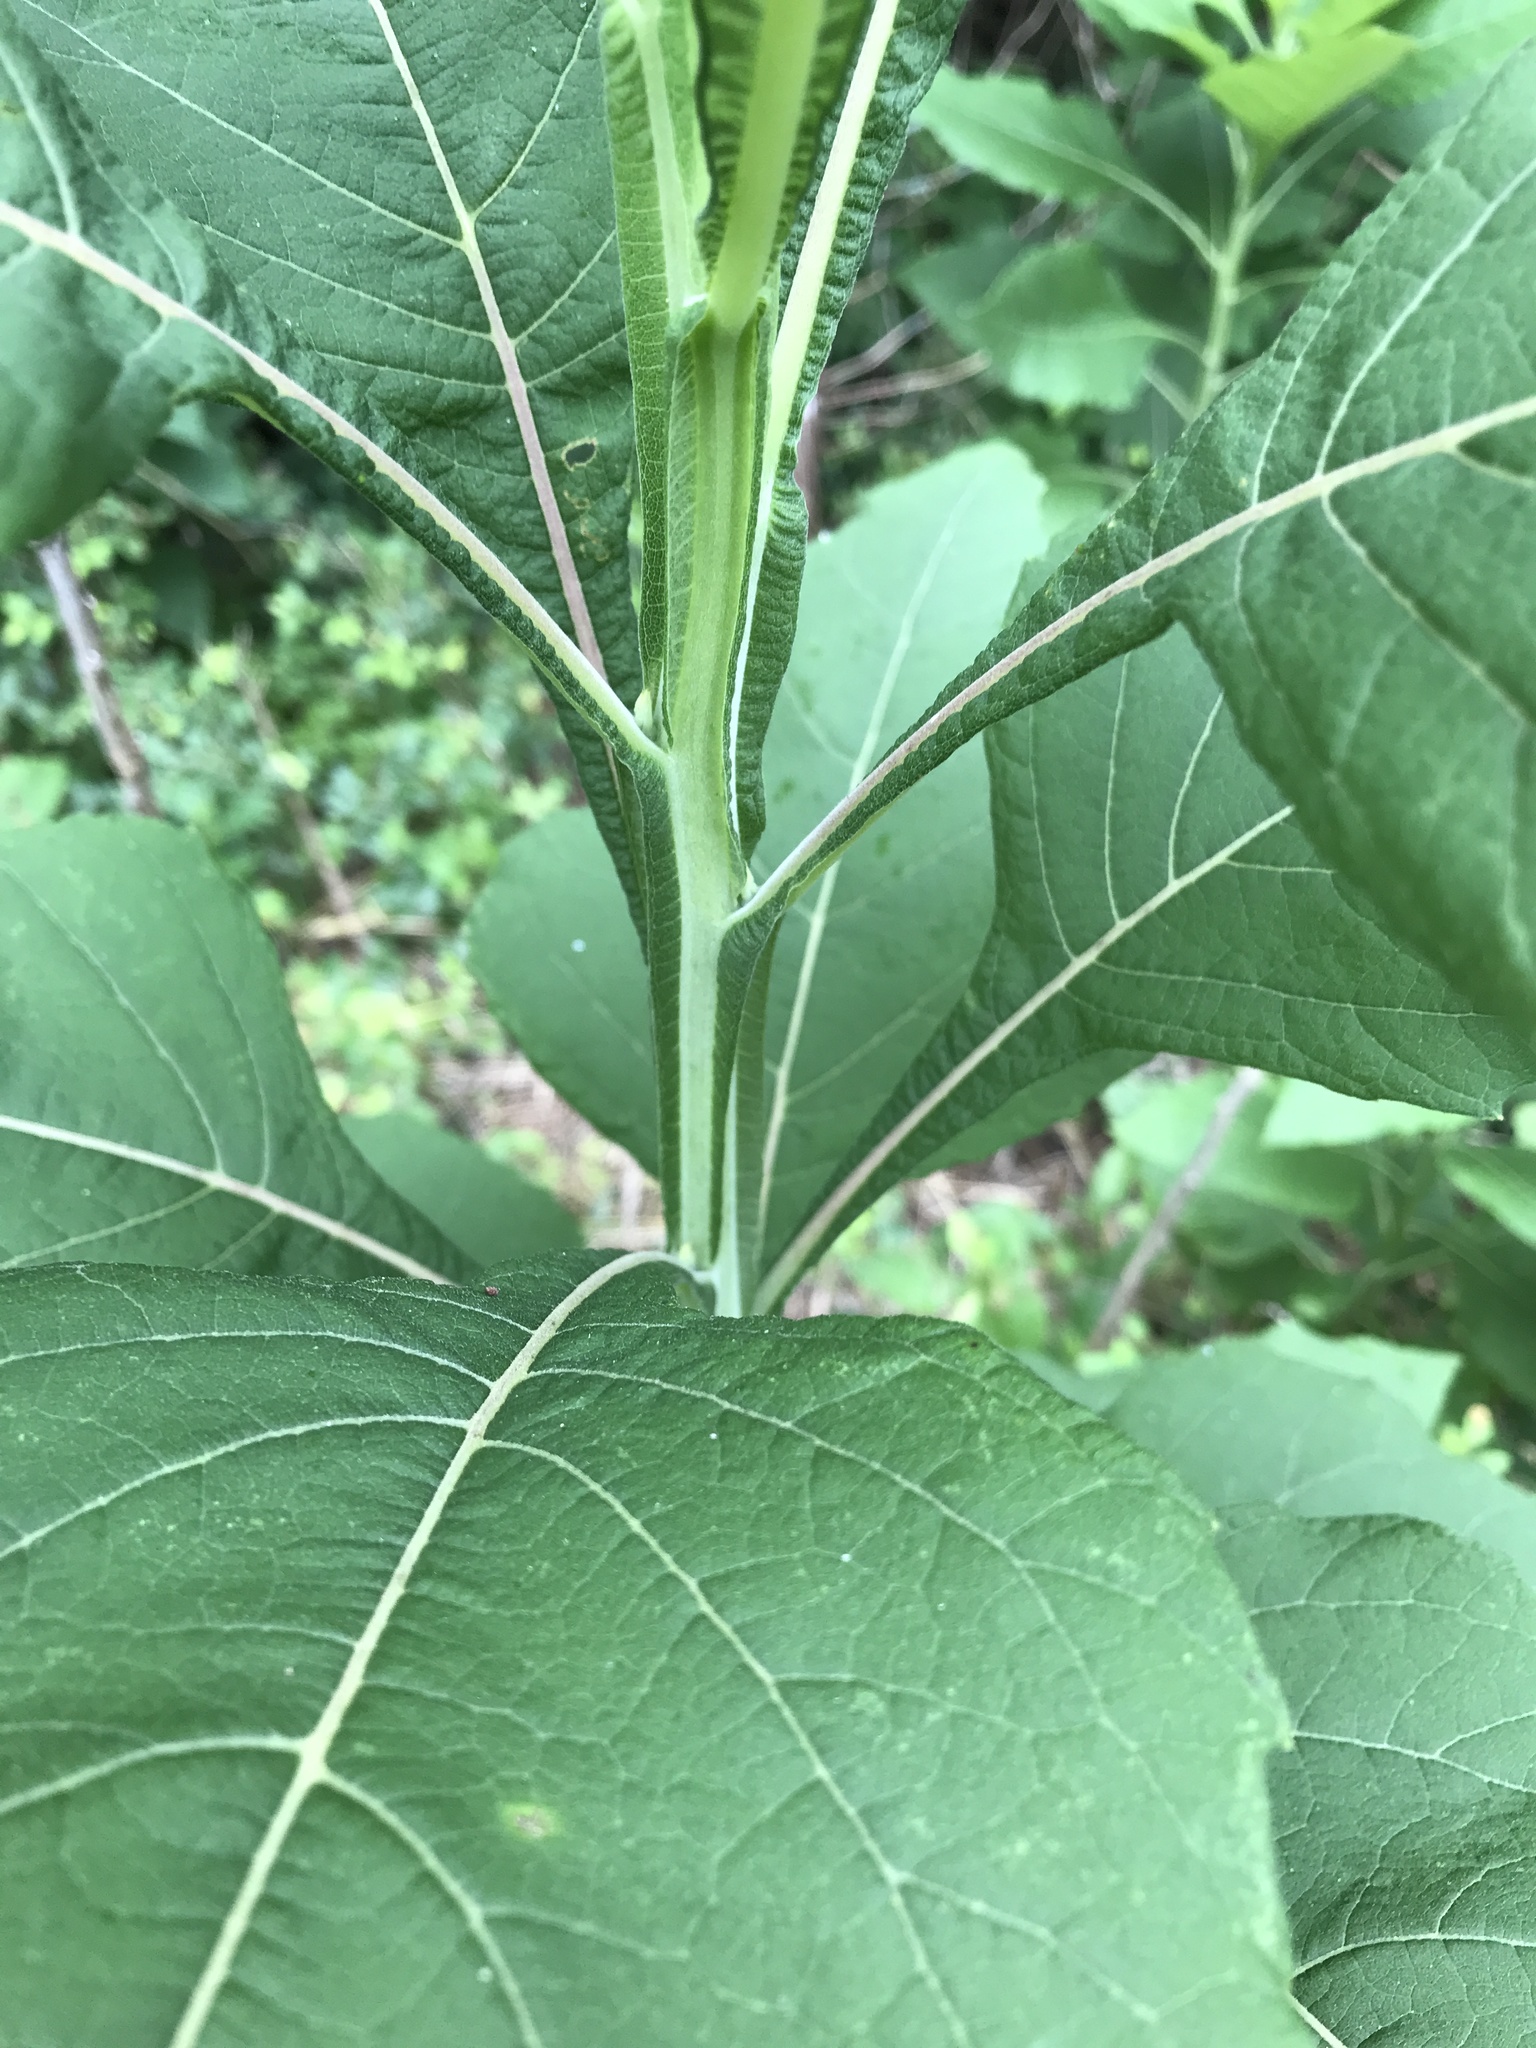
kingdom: Plantae
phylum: Tracheophyta
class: Magnoliopsida
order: Asterales
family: Asteraceae
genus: Verbesina
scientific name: Verbesina virginica
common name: Frostweed
